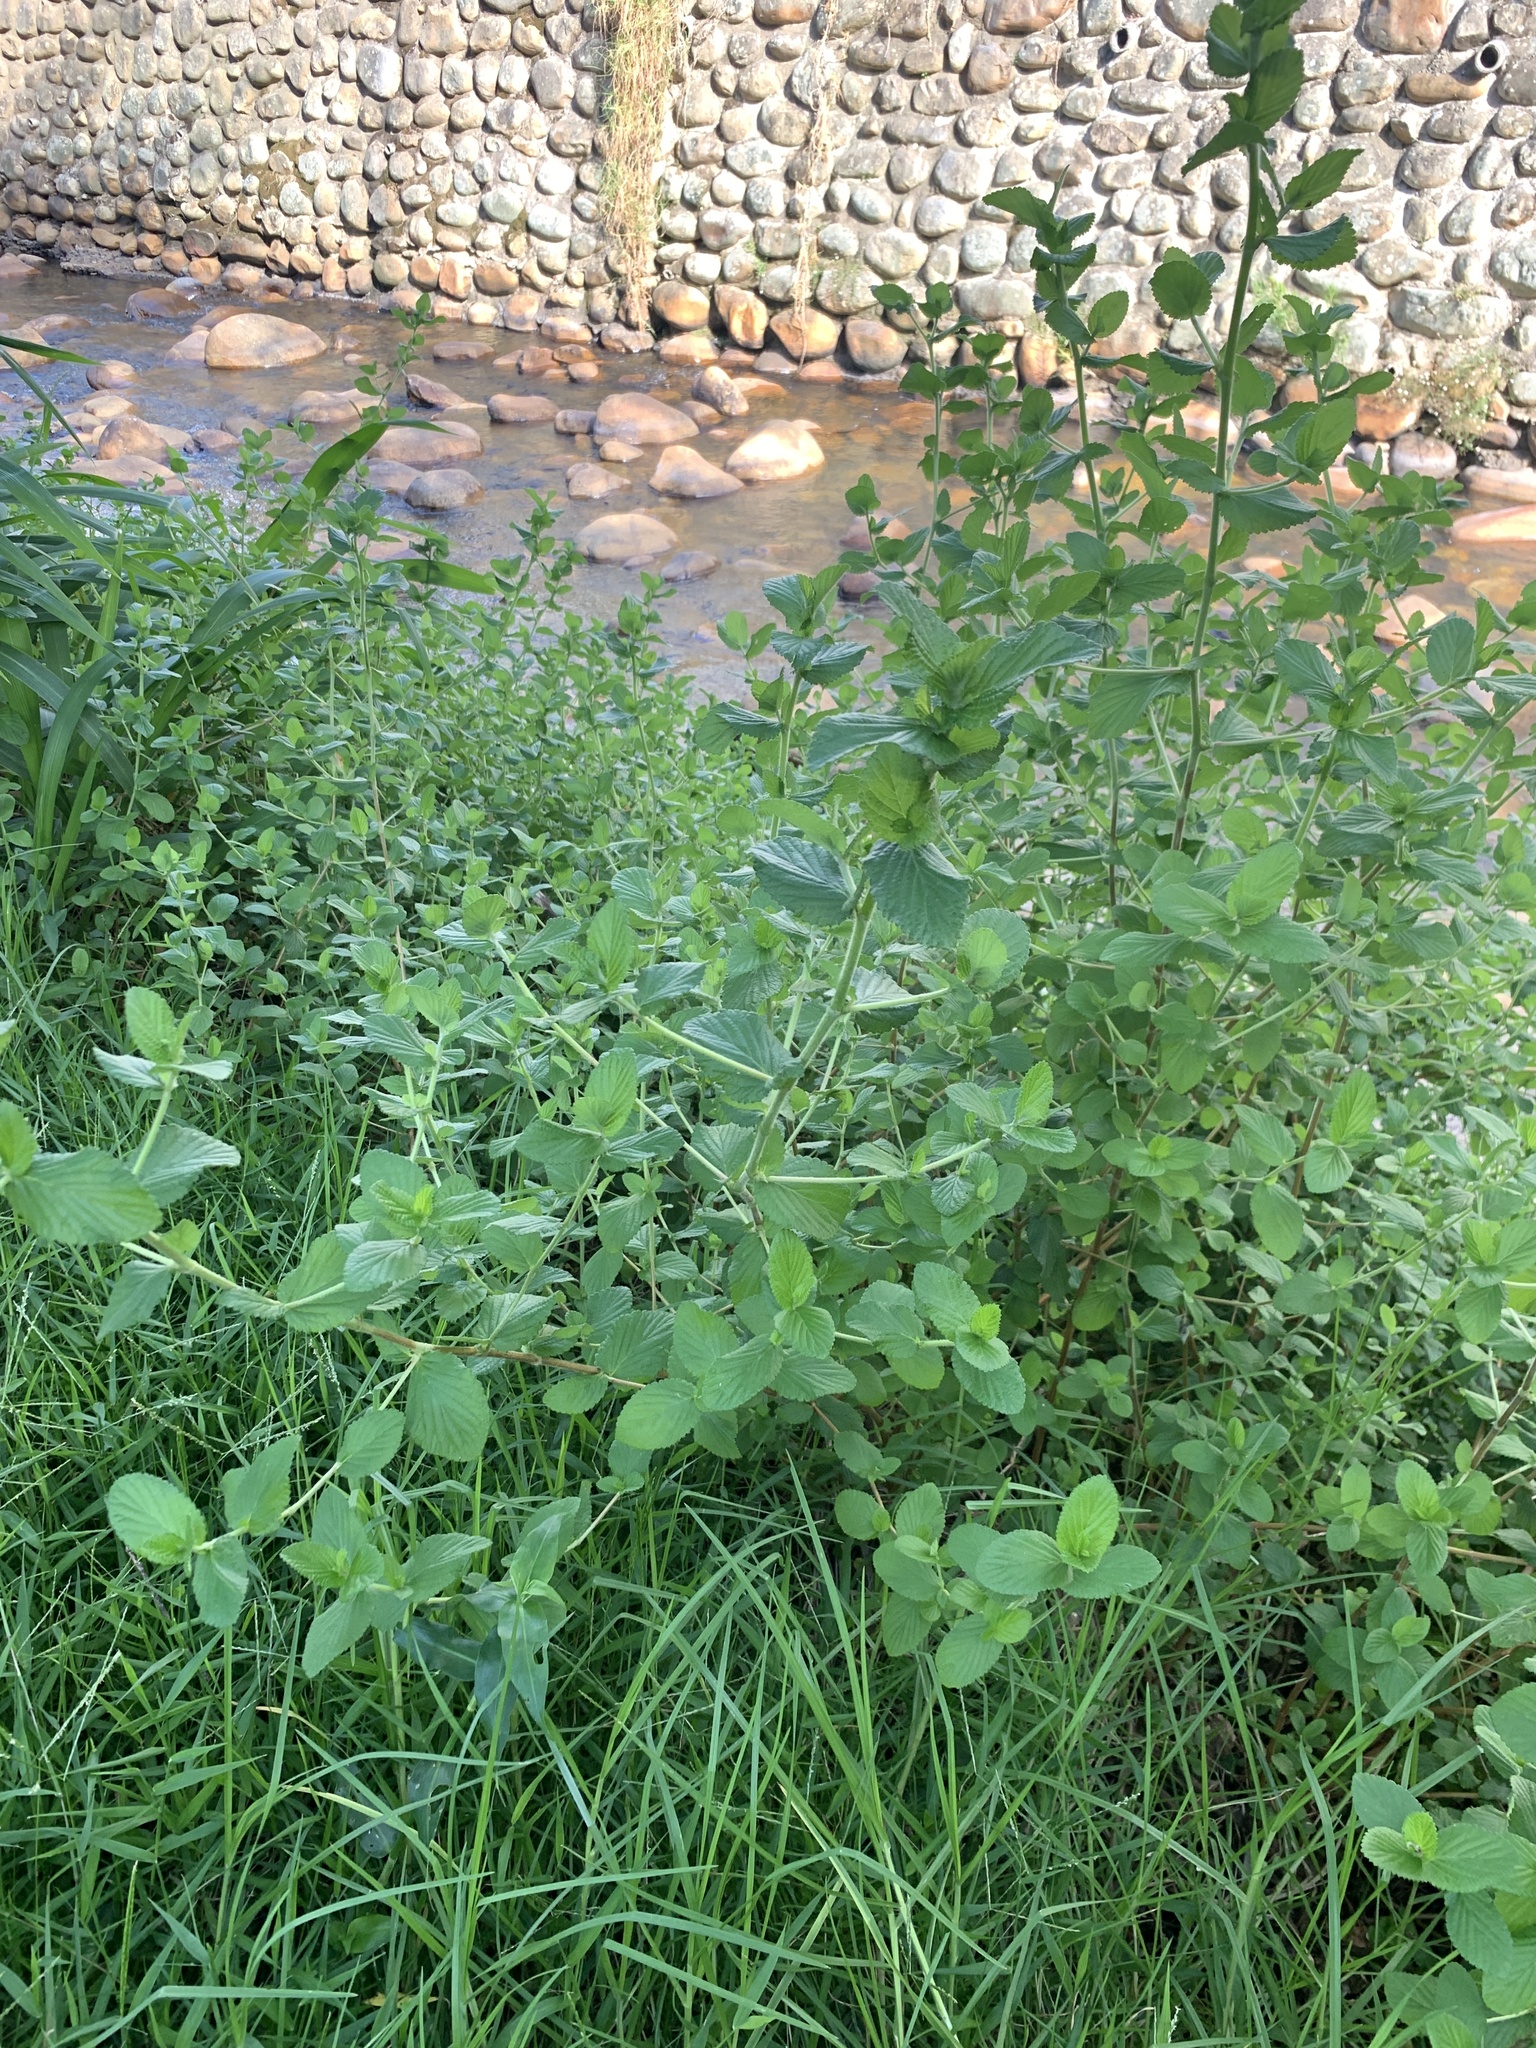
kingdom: Plantae
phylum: Tracheophyta
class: Magnoliopsida
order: Rosales
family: Rosaceae
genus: Cliffortia
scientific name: Cliffortia odorata
